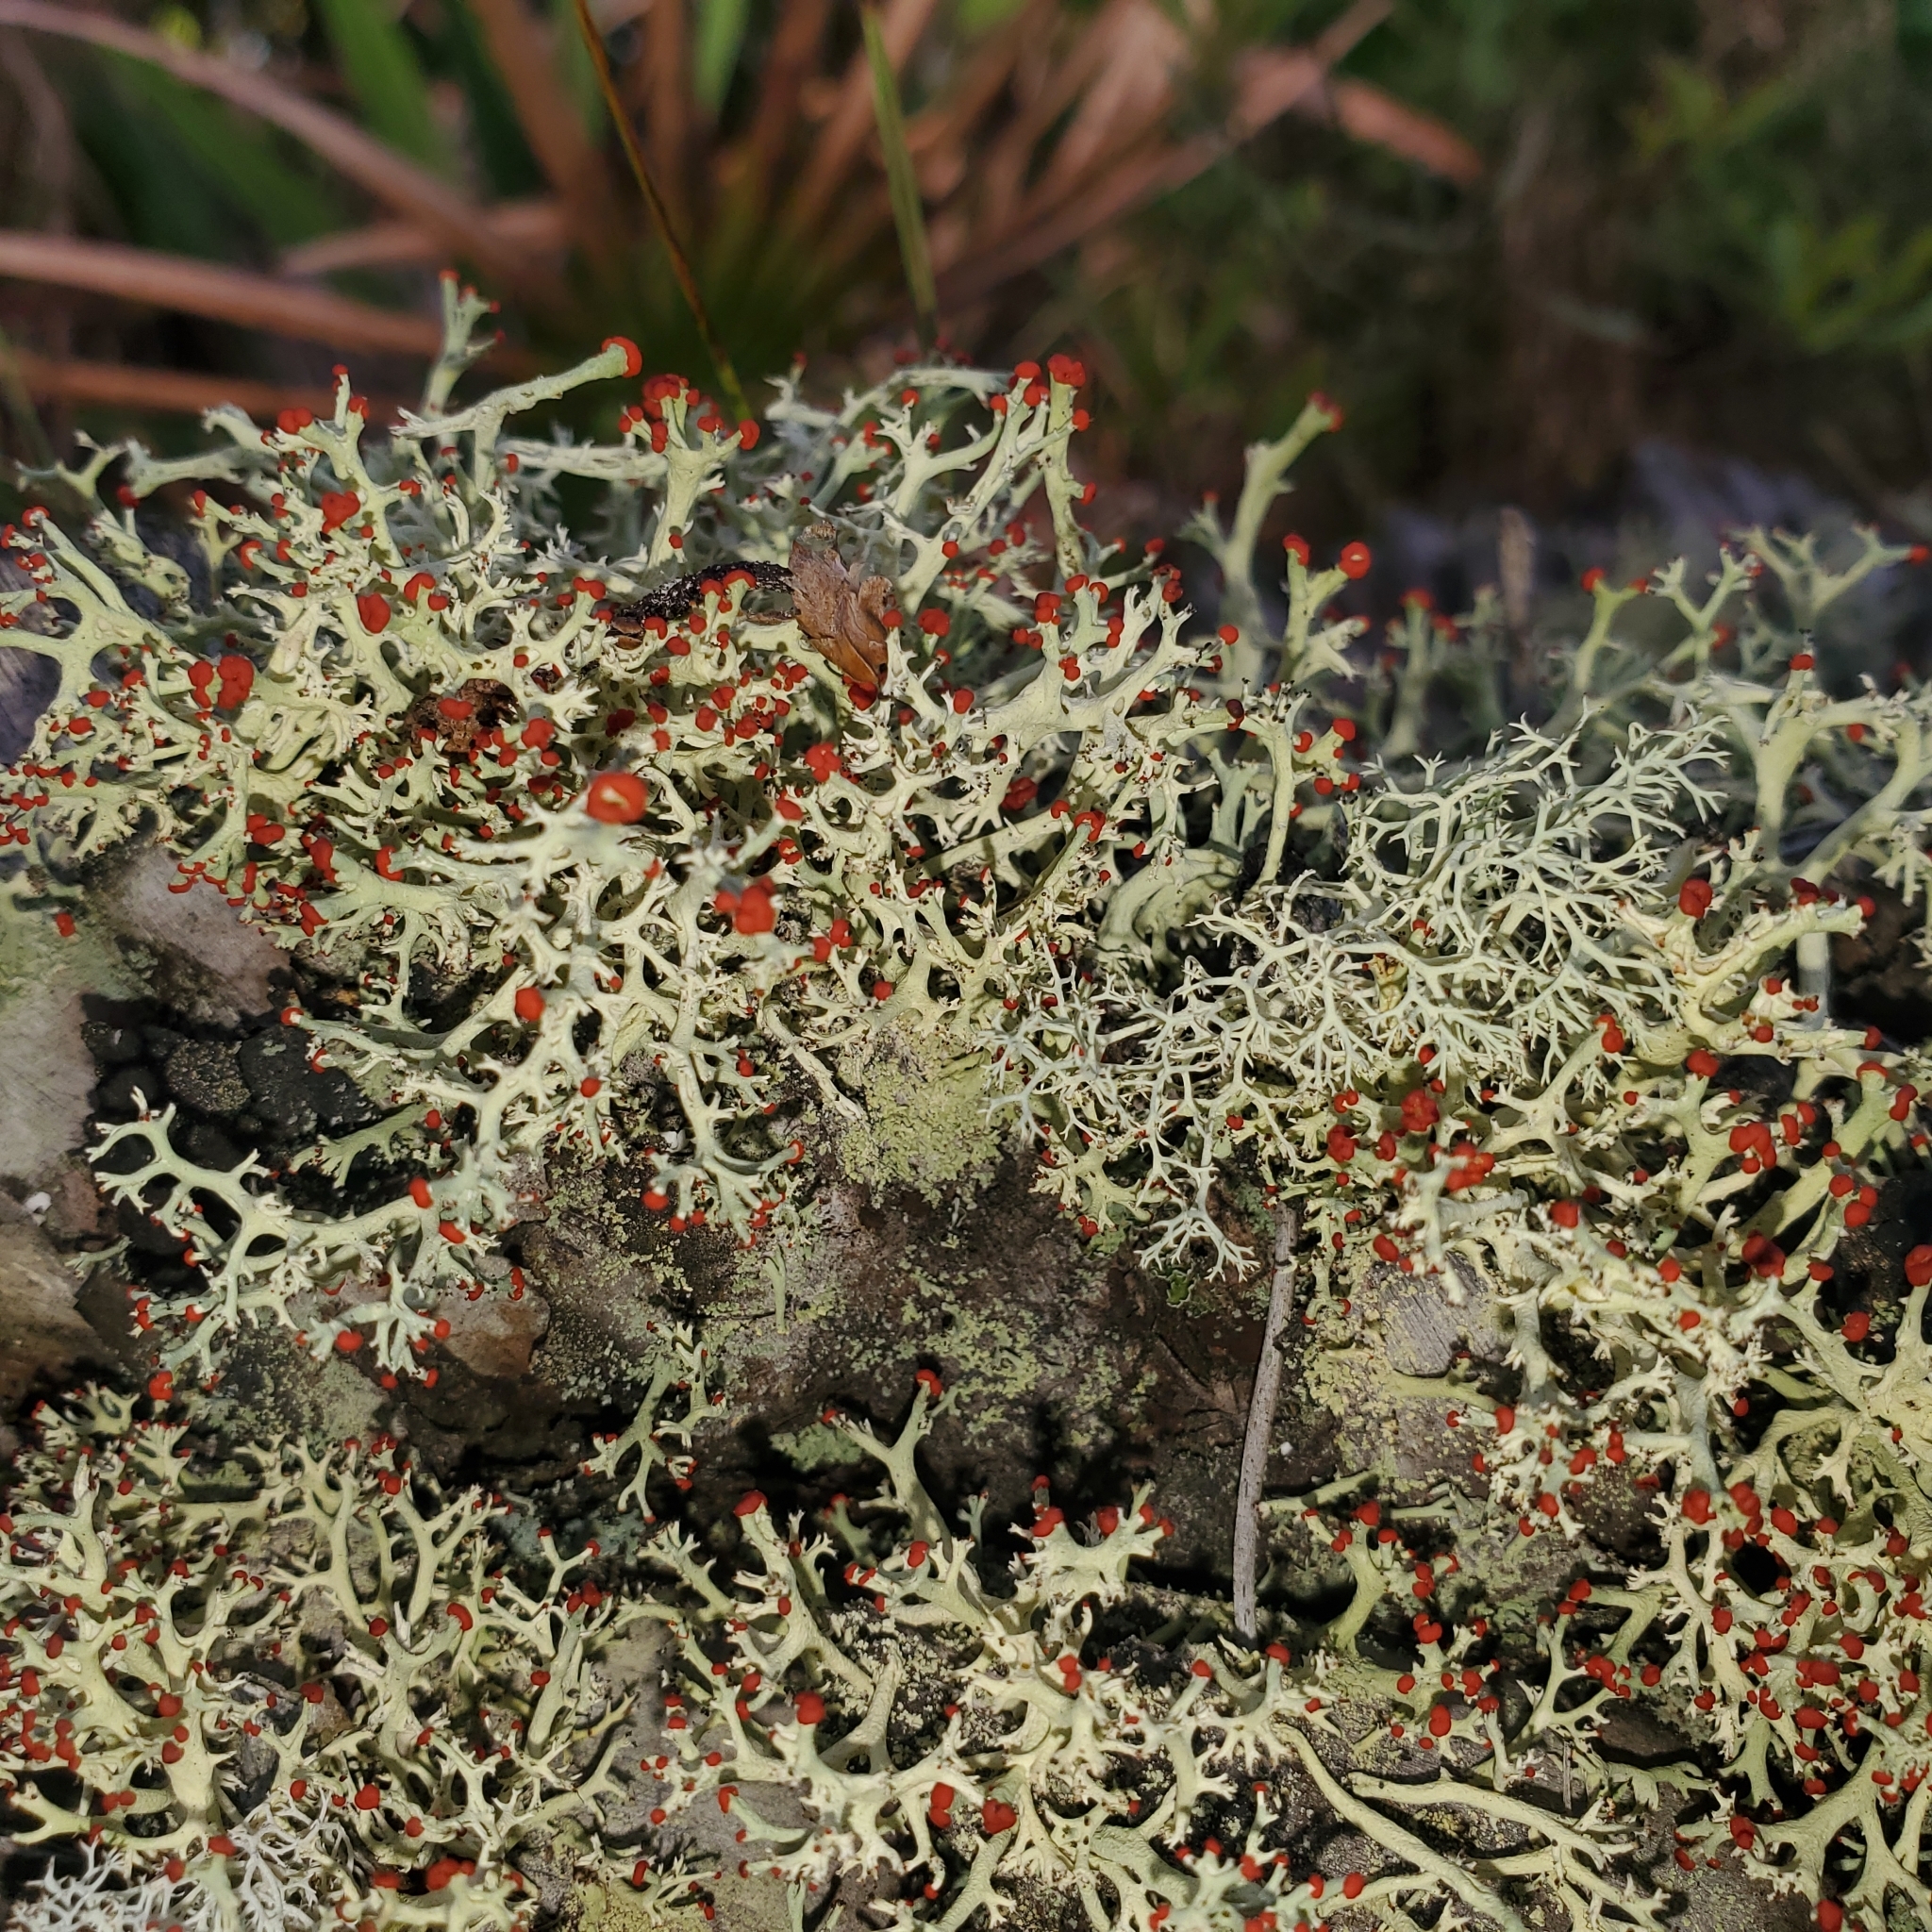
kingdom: Fungi
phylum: Ascomycota
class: Lecanoromycetes
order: Lecanorales
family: Cladoniaceae
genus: Cladonia
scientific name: Cladonia leporina
